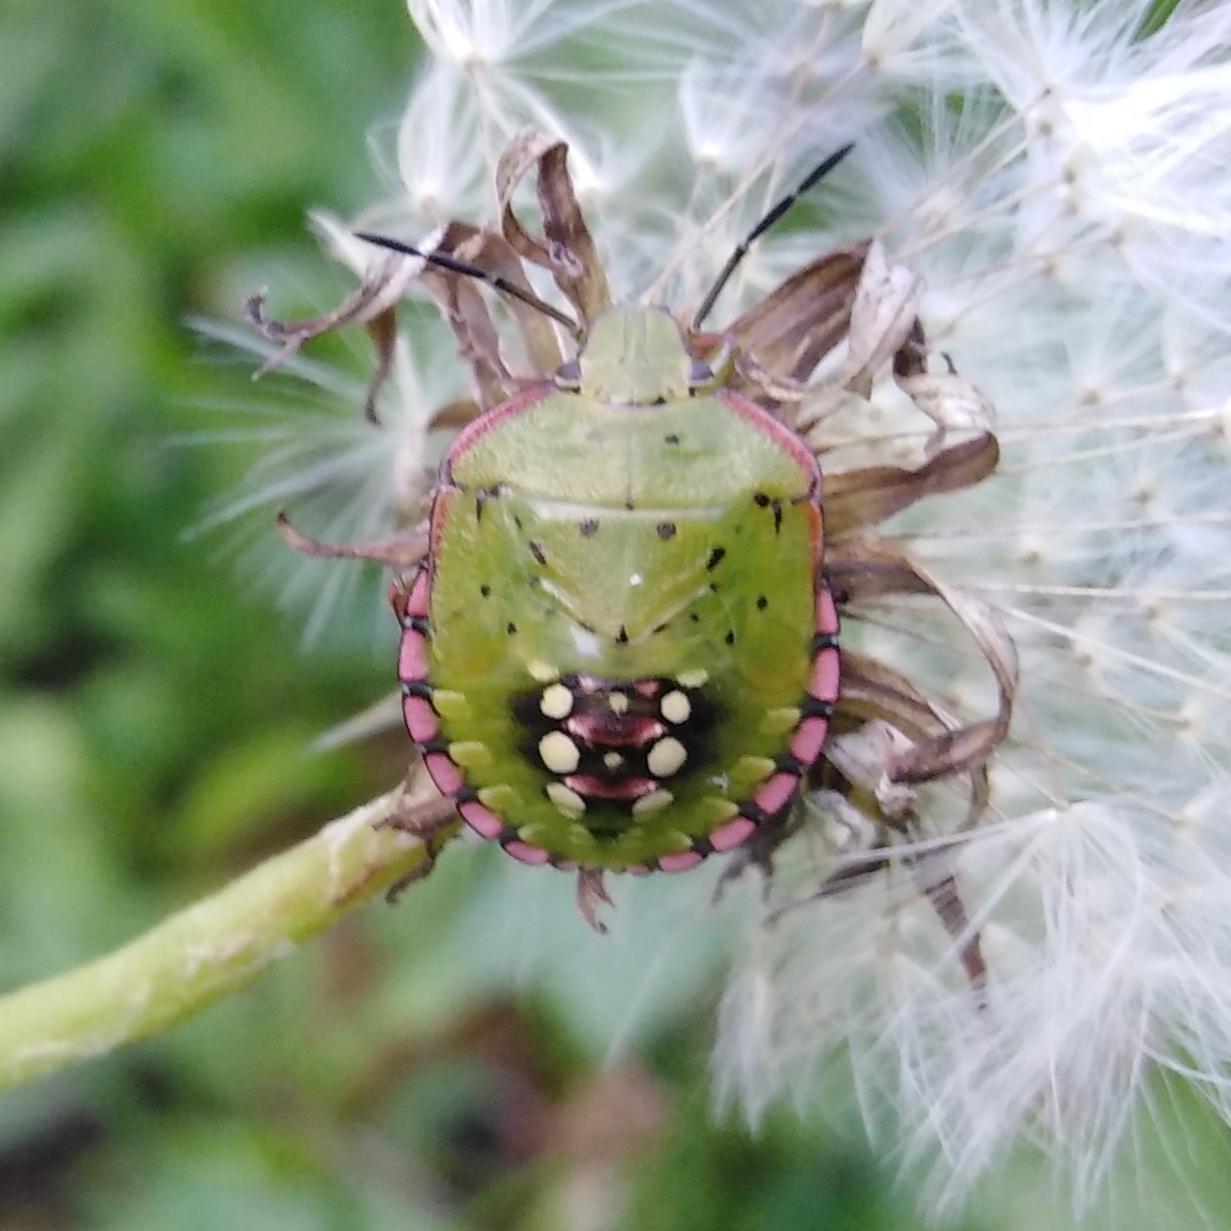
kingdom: Animalia
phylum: Arthropoda
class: Insecta
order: Hemiptera
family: Pentatomidae
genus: Nezara
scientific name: Nezara viridula
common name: Southern green stink bug
